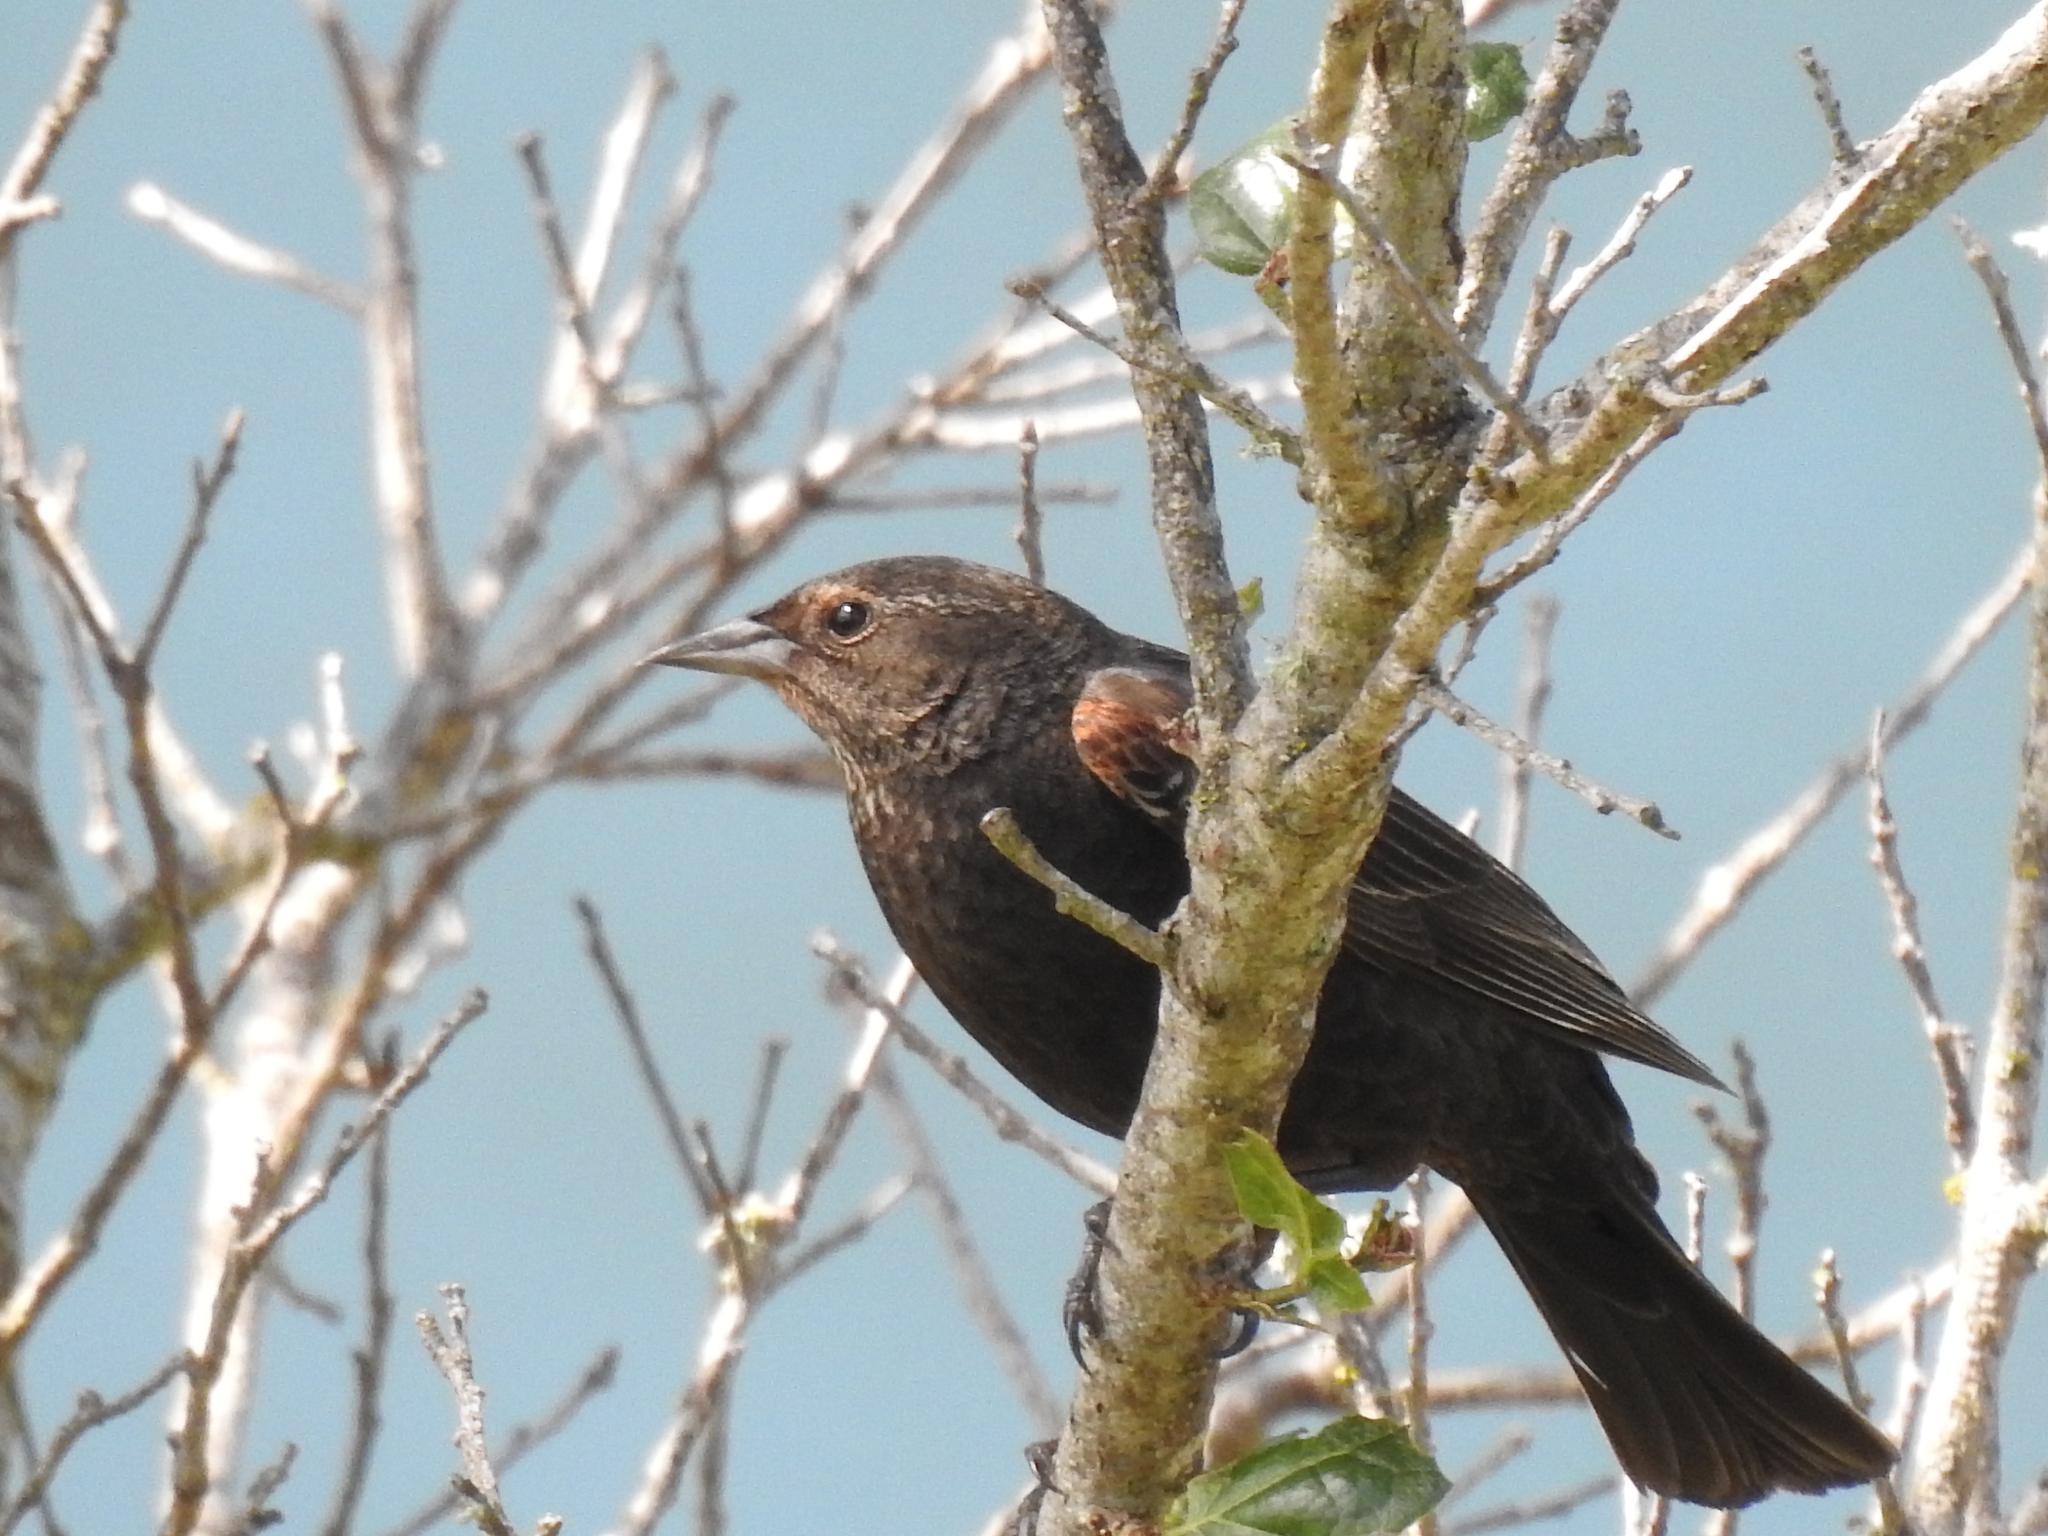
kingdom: Animalia
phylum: Chordata
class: Aves
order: Passeriformes
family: Icteridae
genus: Agelaius
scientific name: Agelaius phoeniceus
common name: Red-winged blackbird
